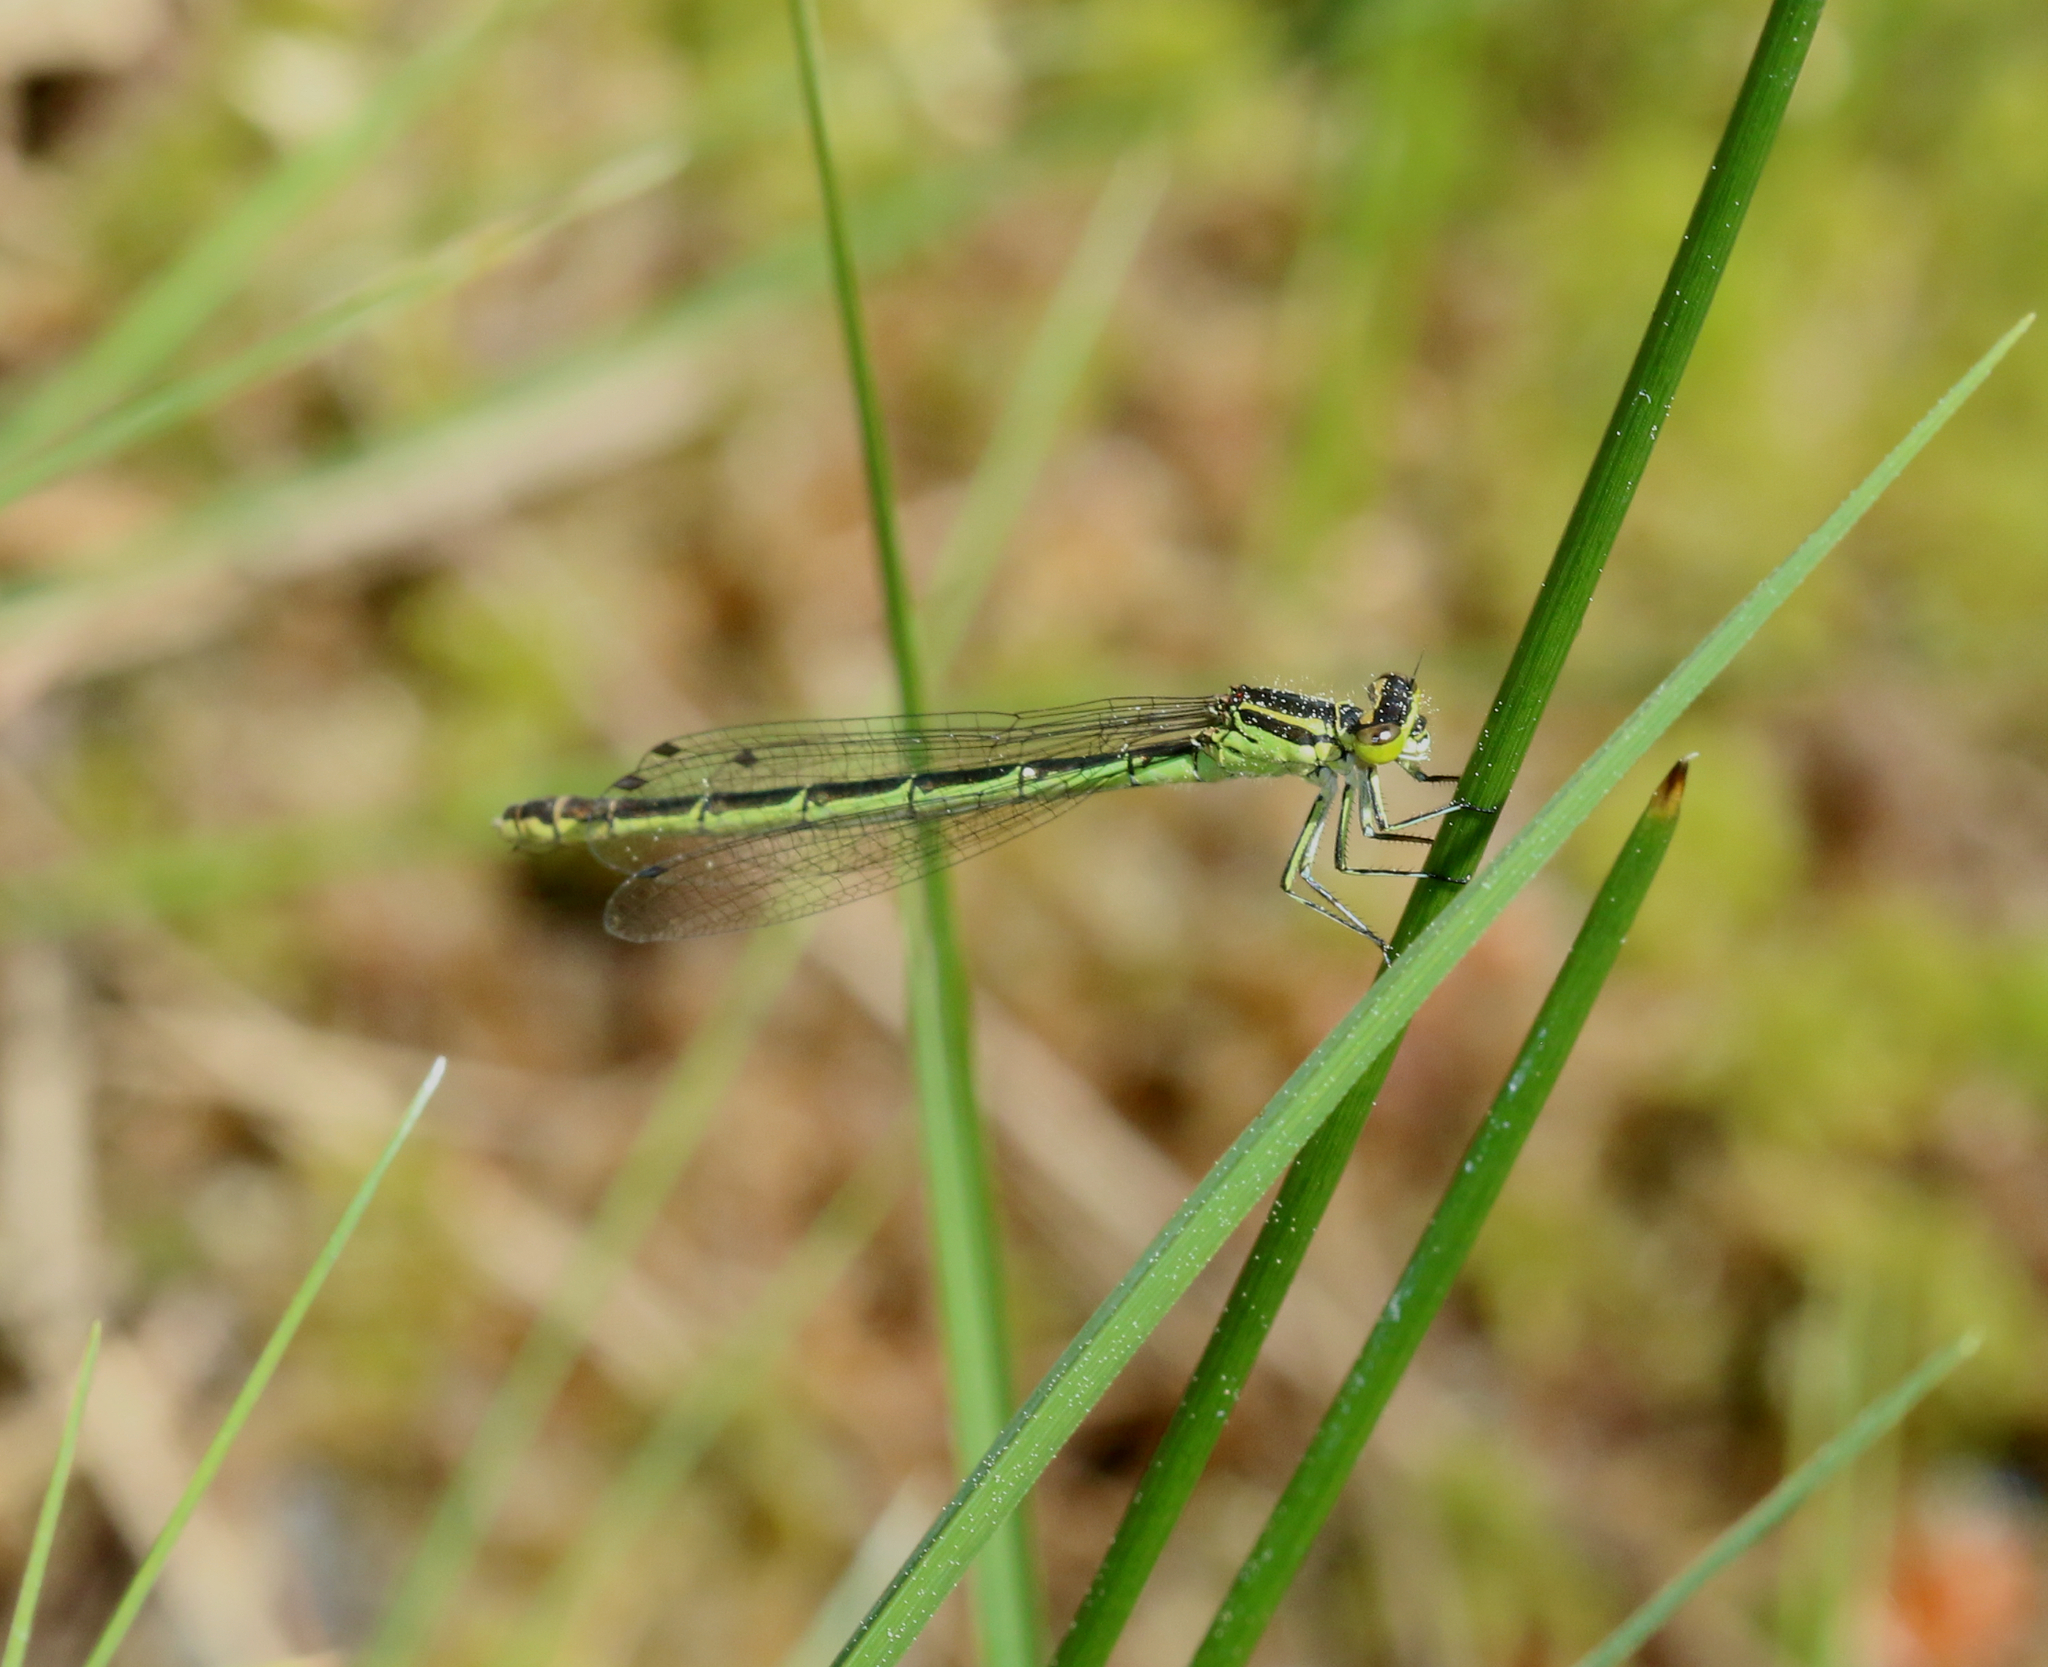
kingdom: Animalia
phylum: Arthropoda
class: Insecta
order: Odonata
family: Coenagrionidae
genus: Coenagrion
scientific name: Coenagrion hastulatum
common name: Spearhead bluet
